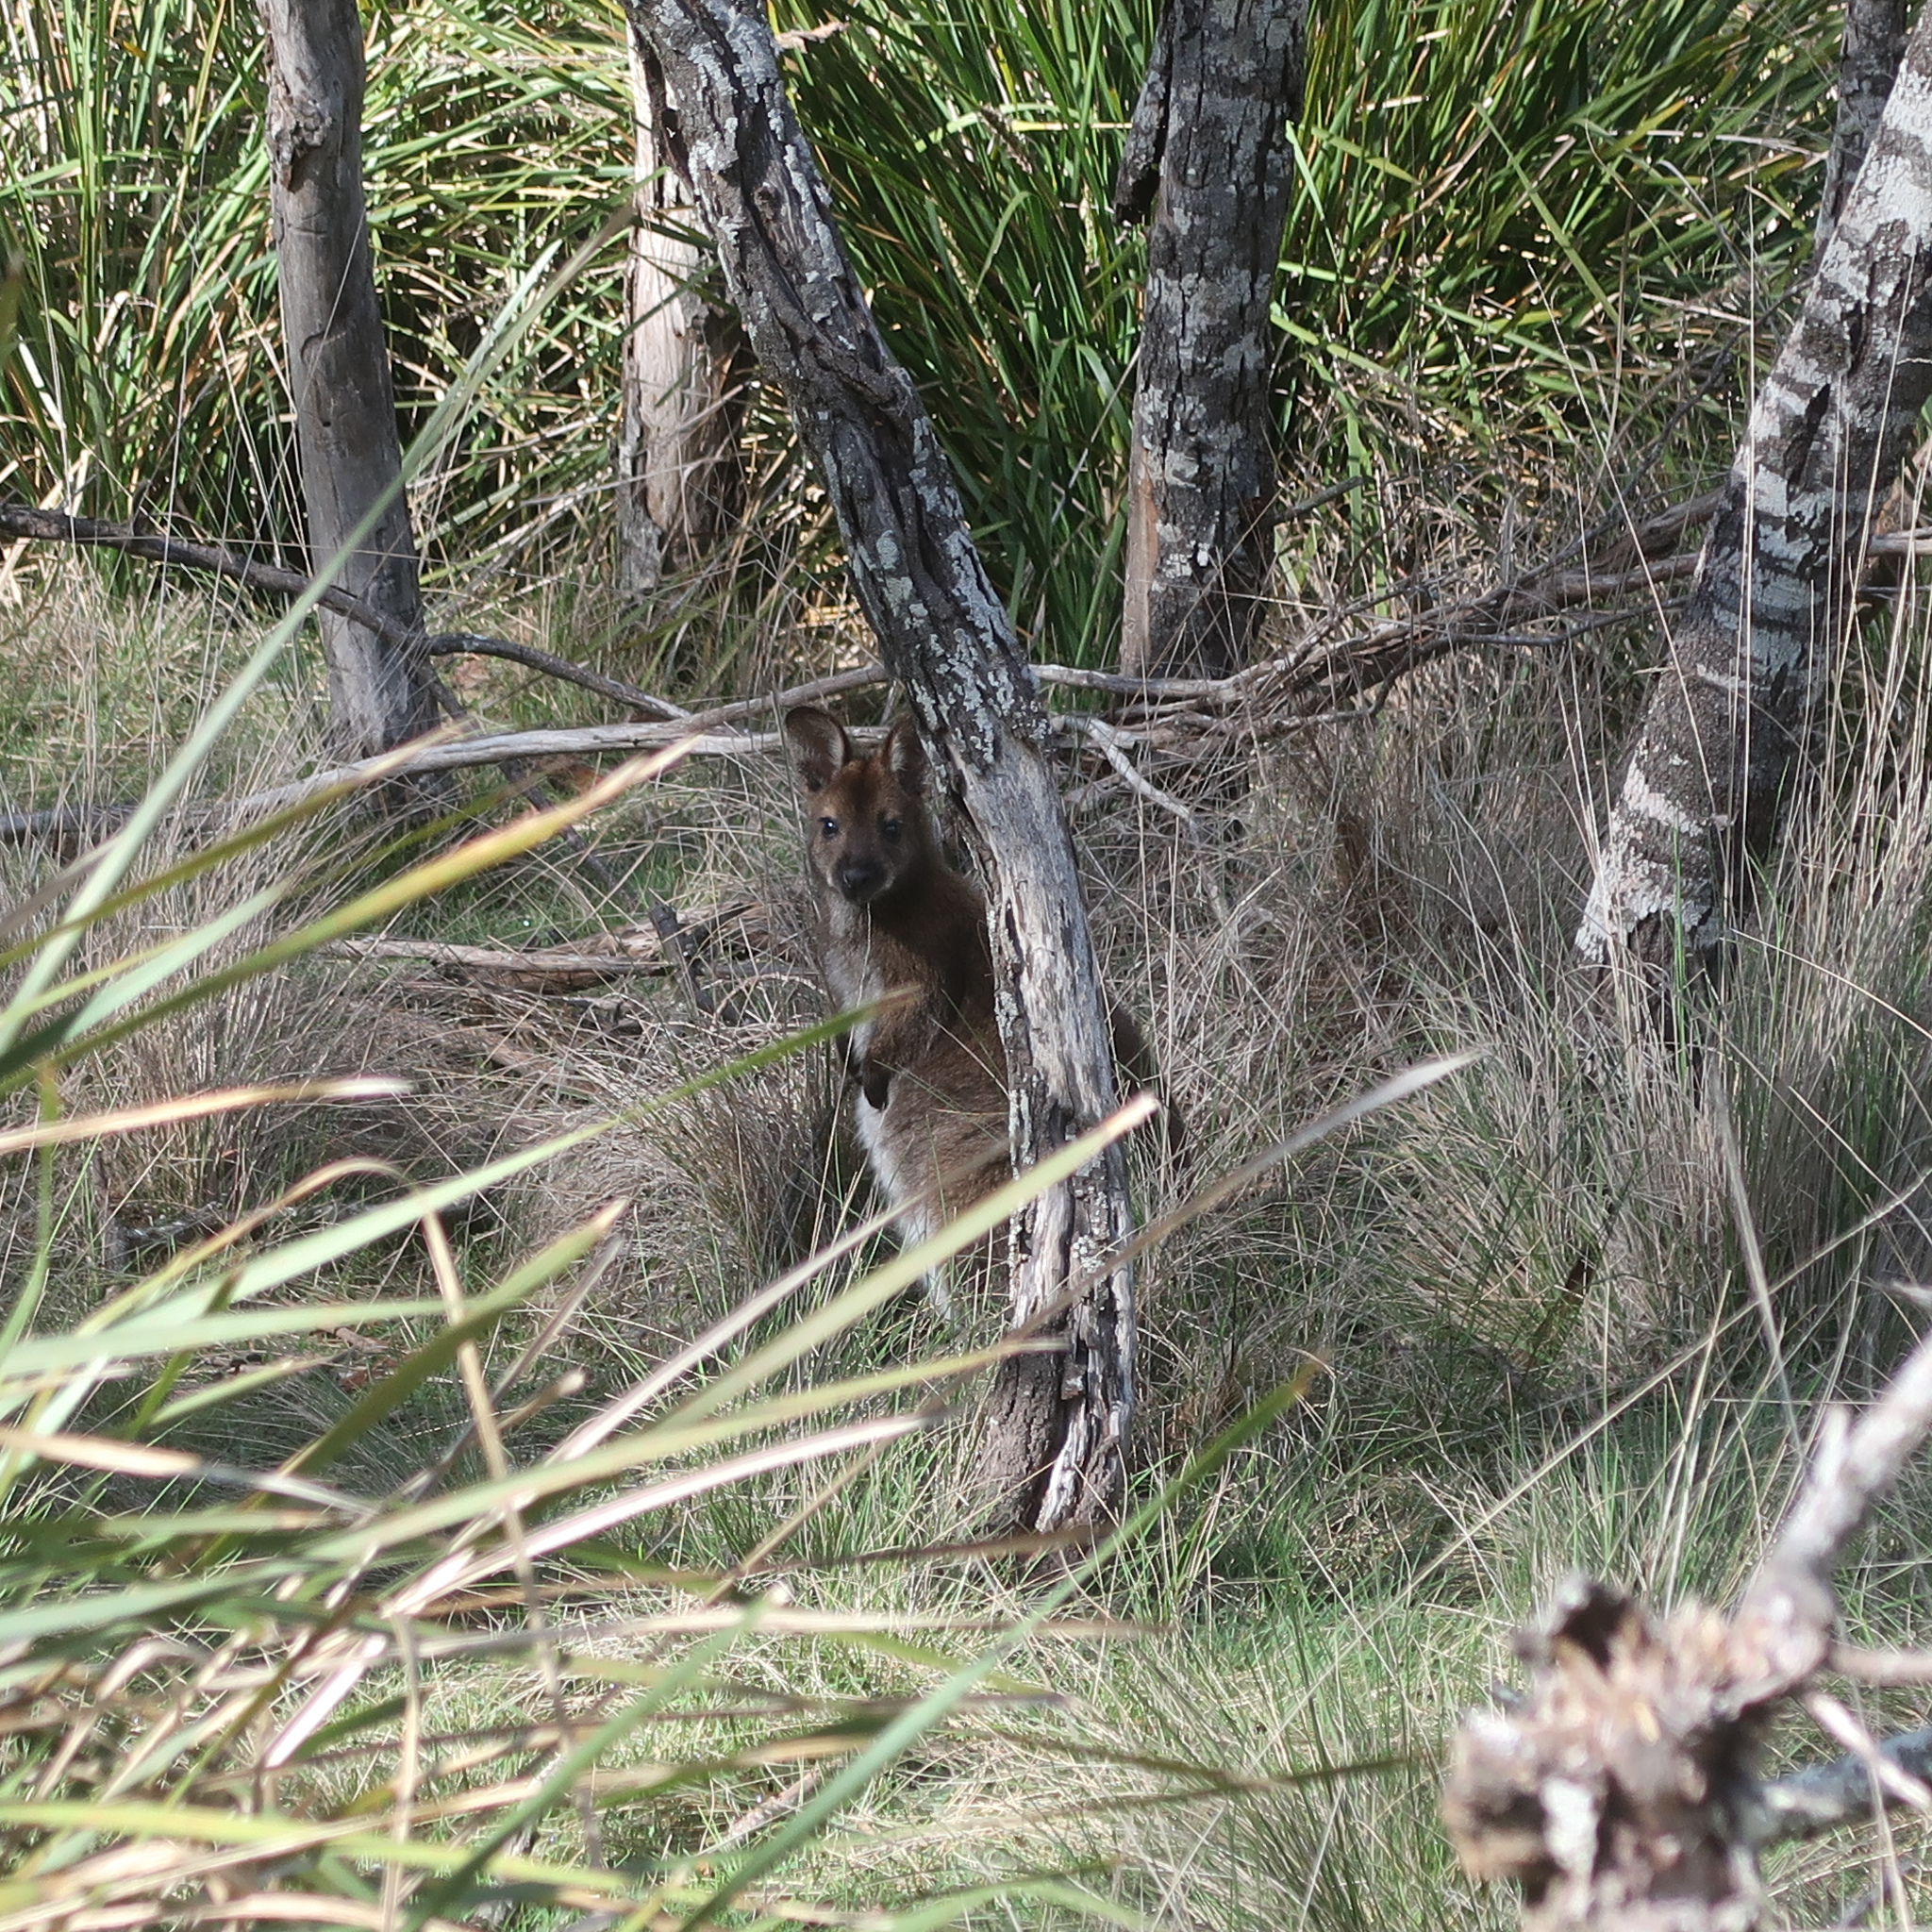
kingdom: Animalia
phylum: Chordata
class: Mammalia
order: Diprotodontia
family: Macropodidae
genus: Notamacropus
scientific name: Notamacropus rufogriseus
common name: Red-necked wallaby
